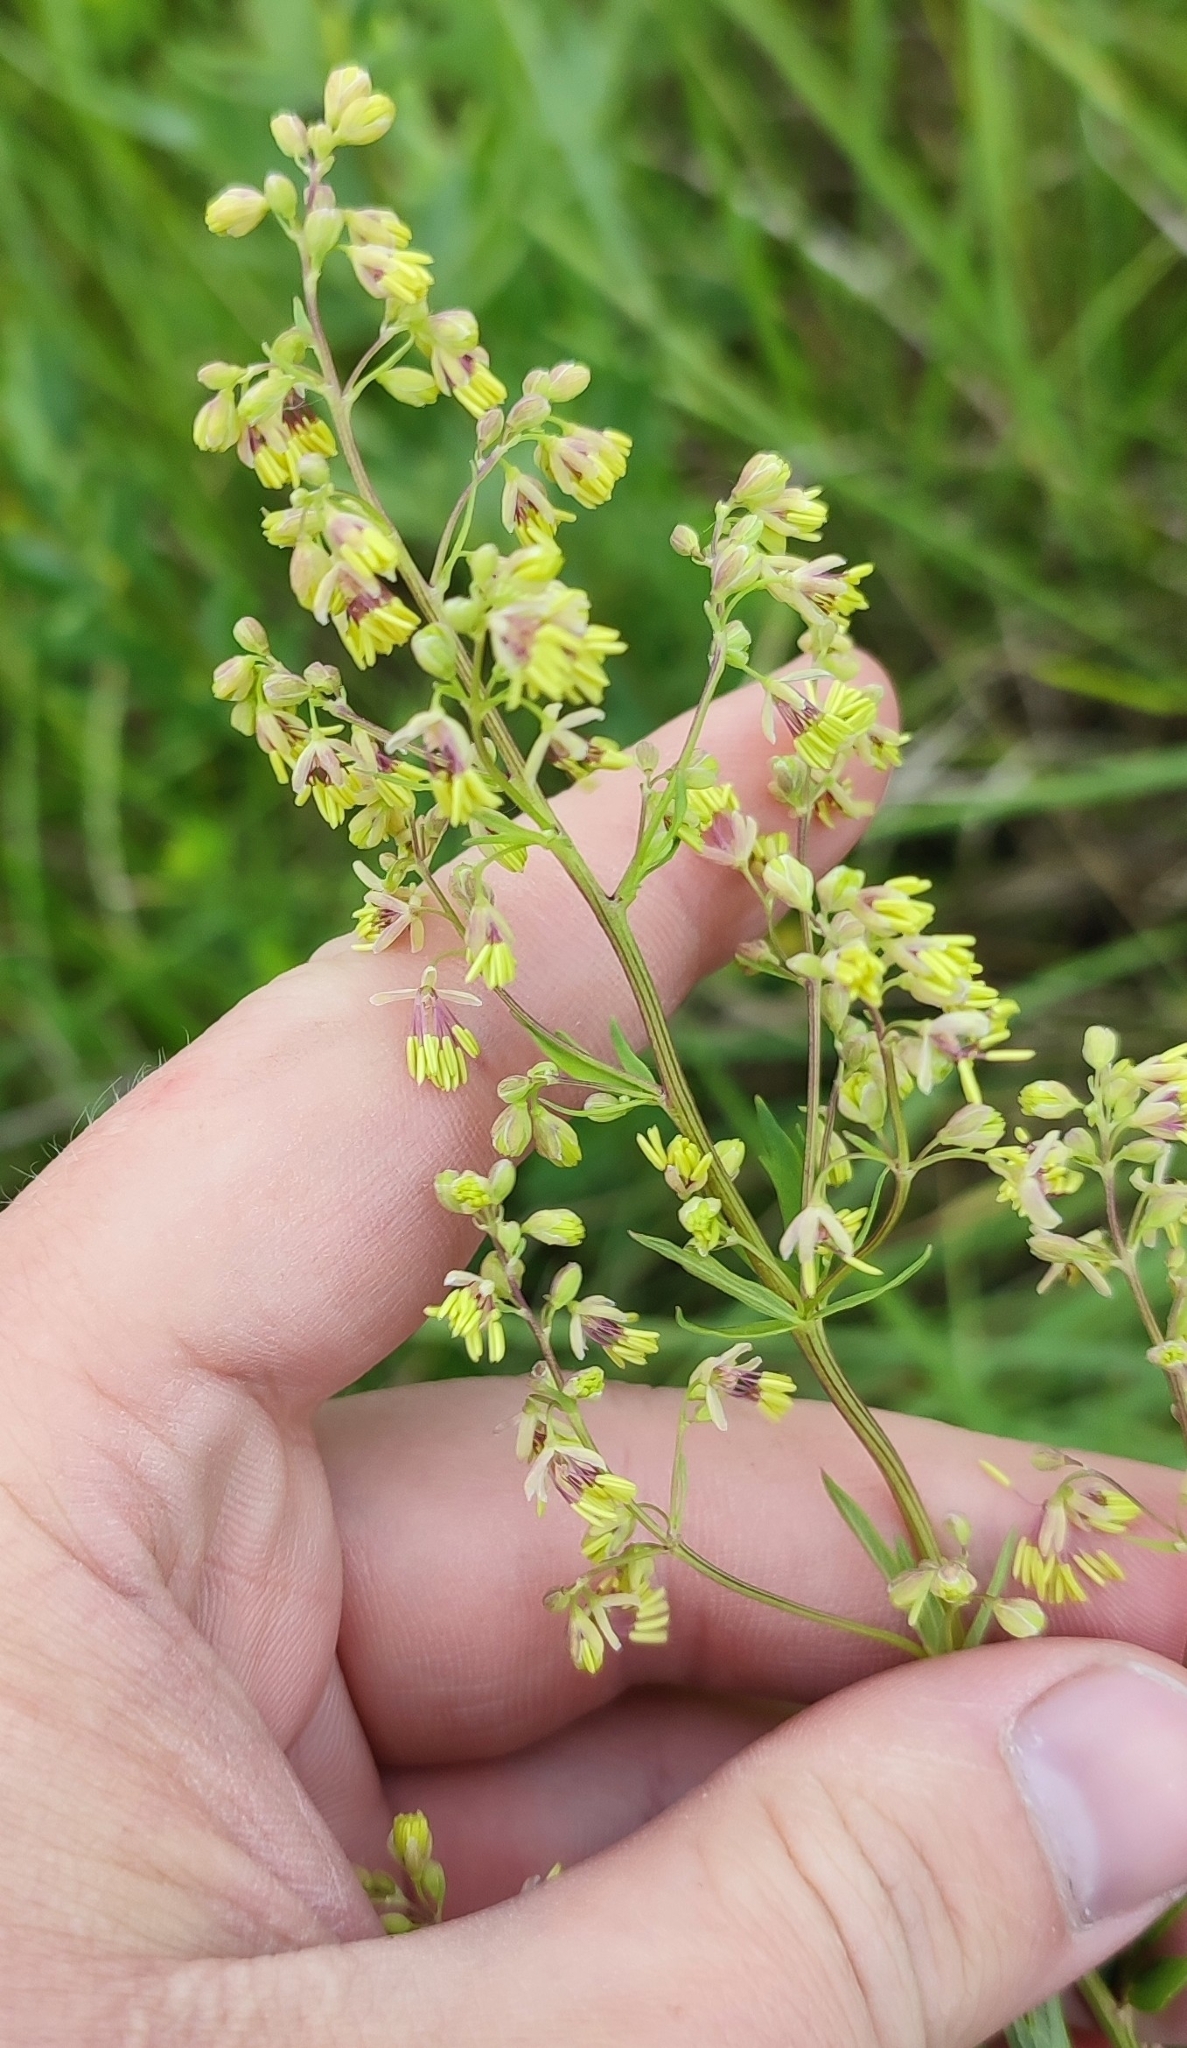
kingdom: Plantae
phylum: Tracheophyta
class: Magnoliopsida
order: Ranunculales
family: Ranunculaceae
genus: Thalictrum
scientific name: Thalictrum simplex
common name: Small meadow-rue
